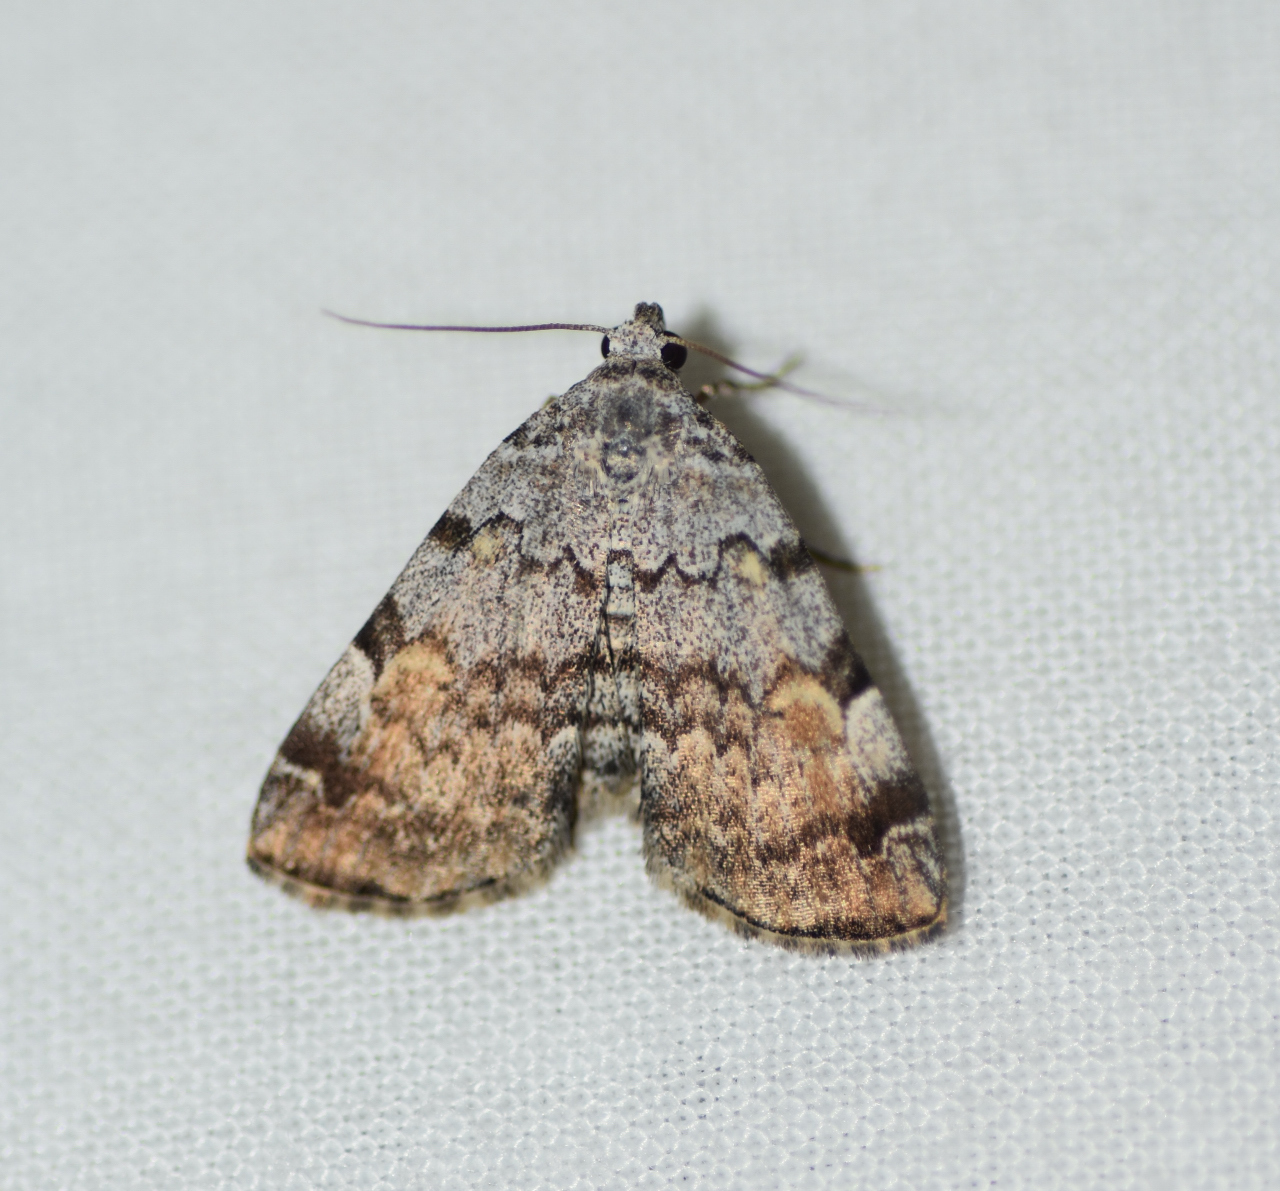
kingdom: Animalia
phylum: Arthropoda
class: Insecta
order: Lepidoptera
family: Erebidae
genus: Idia
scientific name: Idia americalis
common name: American idia moth
